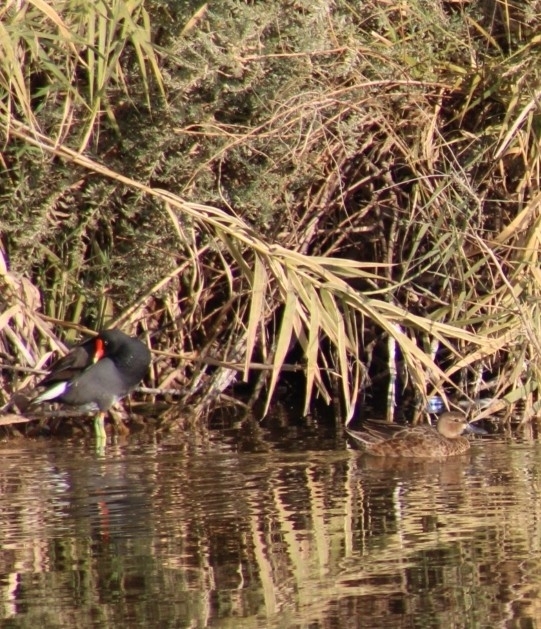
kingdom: Animalia
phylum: Chordata
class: Aves
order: Gruiformes
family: Rallidae
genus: Gallinula
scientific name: Gallinula chloropus
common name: Common moorhen
